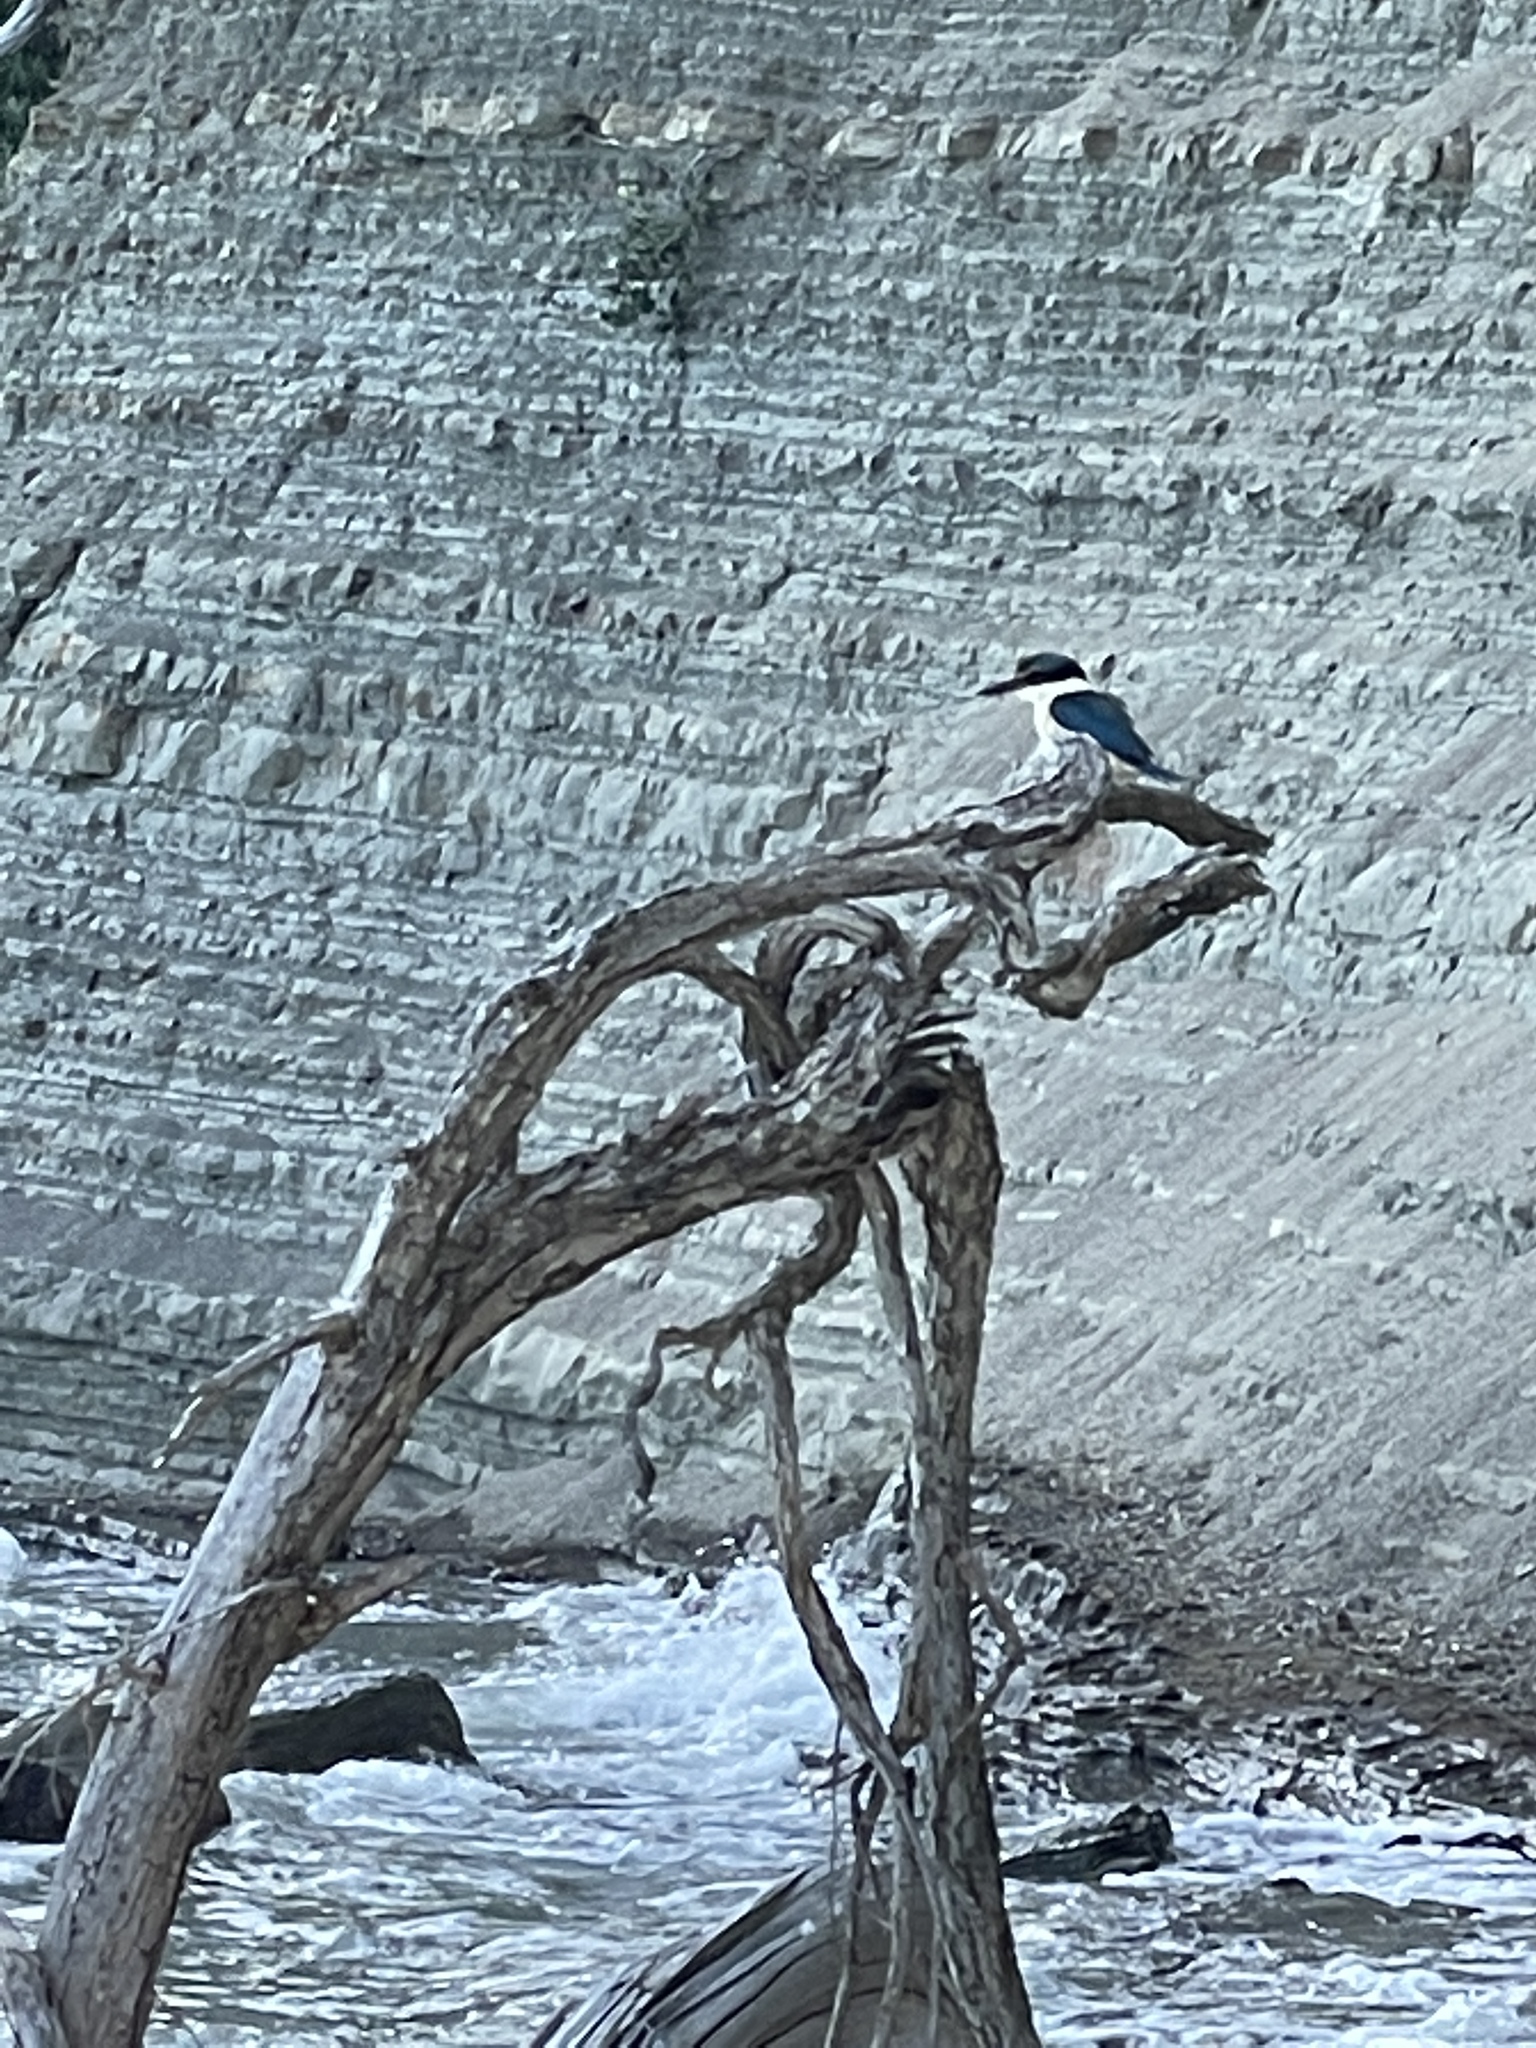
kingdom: Animalia
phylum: Chordata
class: Aves
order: Coraciiformes
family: Alcedinidae
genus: Todiramphus
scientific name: Todiramphus sanctus
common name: Sacred kingfisher
